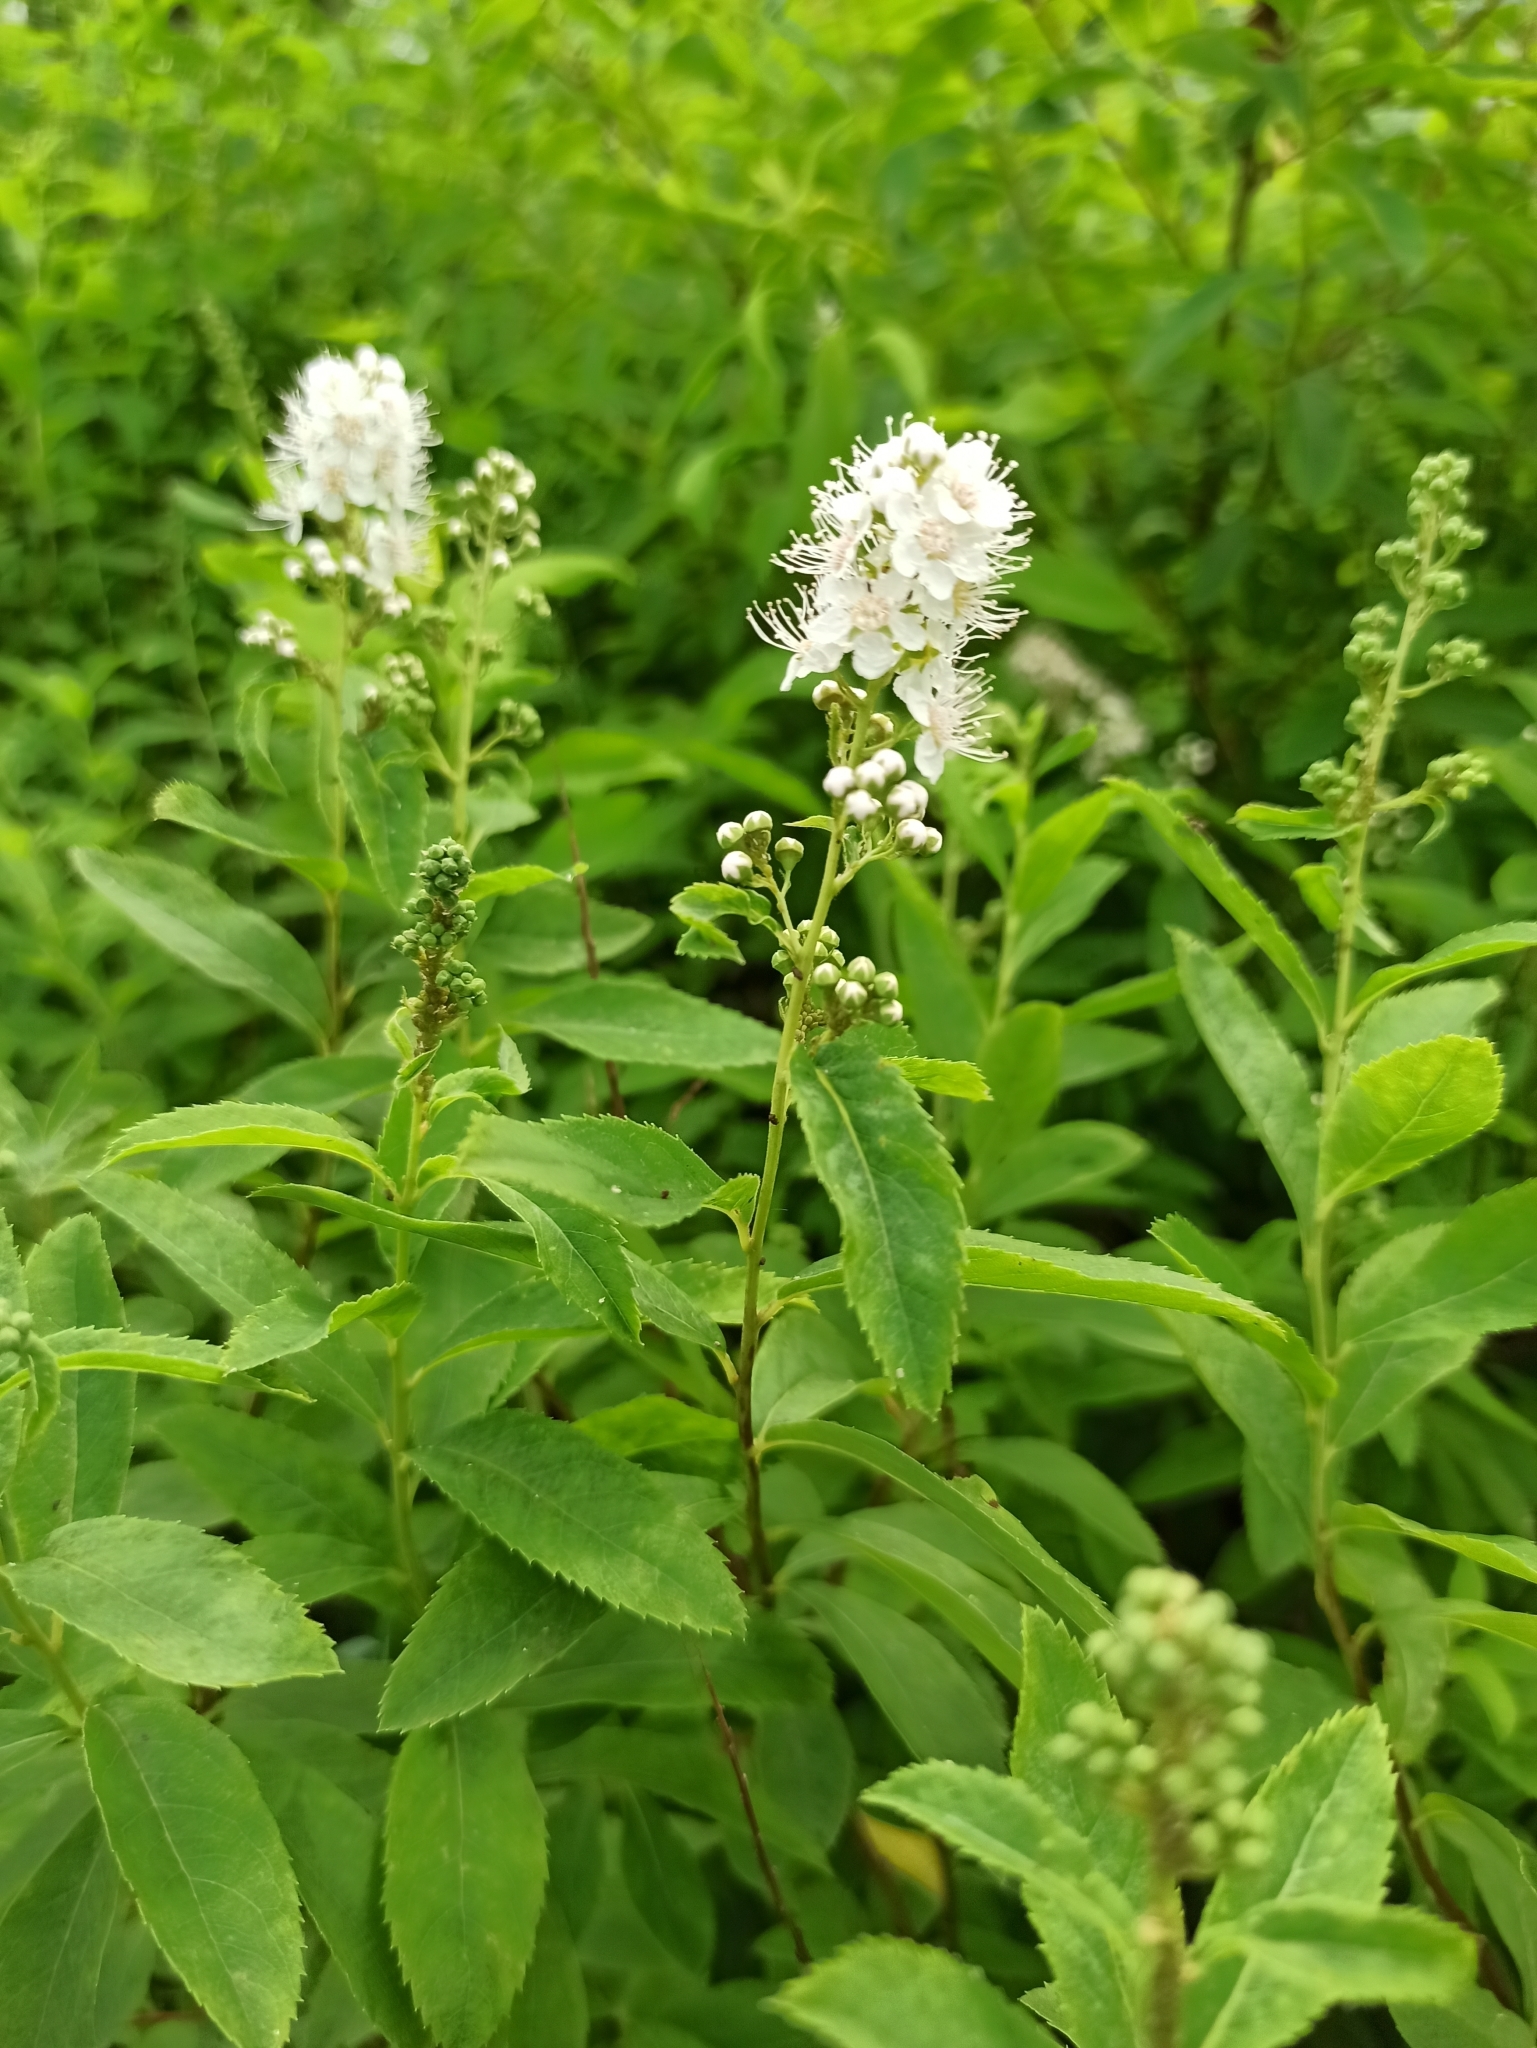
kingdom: Plantae
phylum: Tracheophyta
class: Magnoliopsida
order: Rosales
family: Rosaceae
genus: Spiraea
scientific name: Spiraea alba
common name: Pale bridewort
